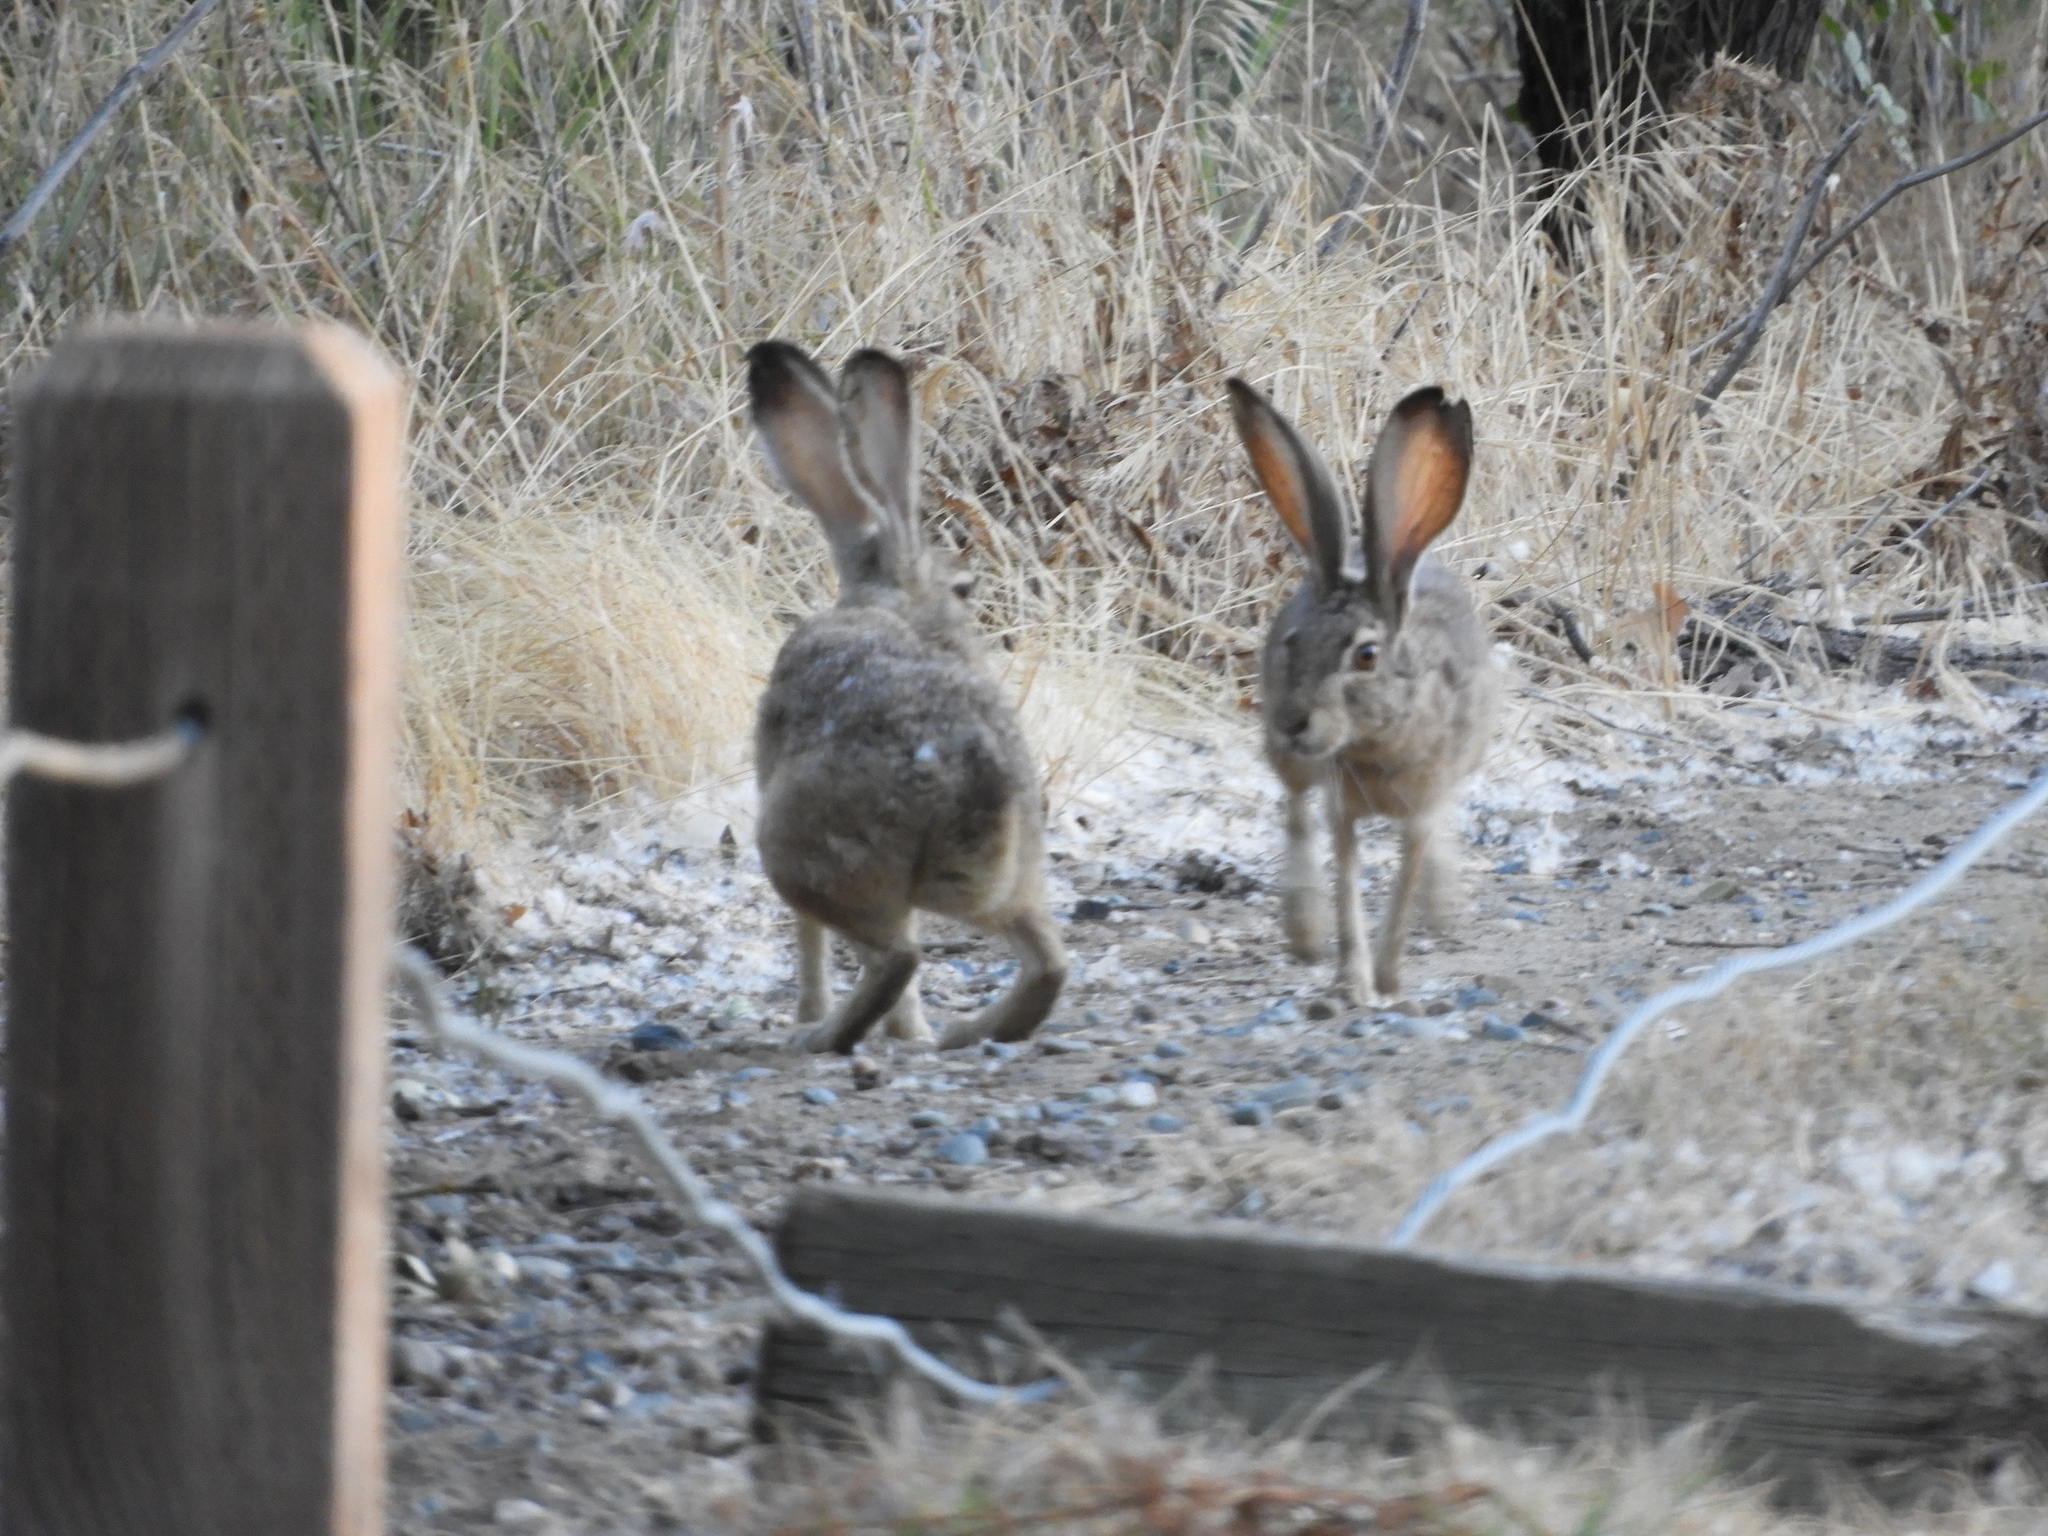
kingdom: Animalia
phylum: Chordata
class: Mammalia
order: Lagomorpha
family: Leporidae
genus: Lepus
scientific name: Lepus californicus
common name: Black-tailed jackrabbit
